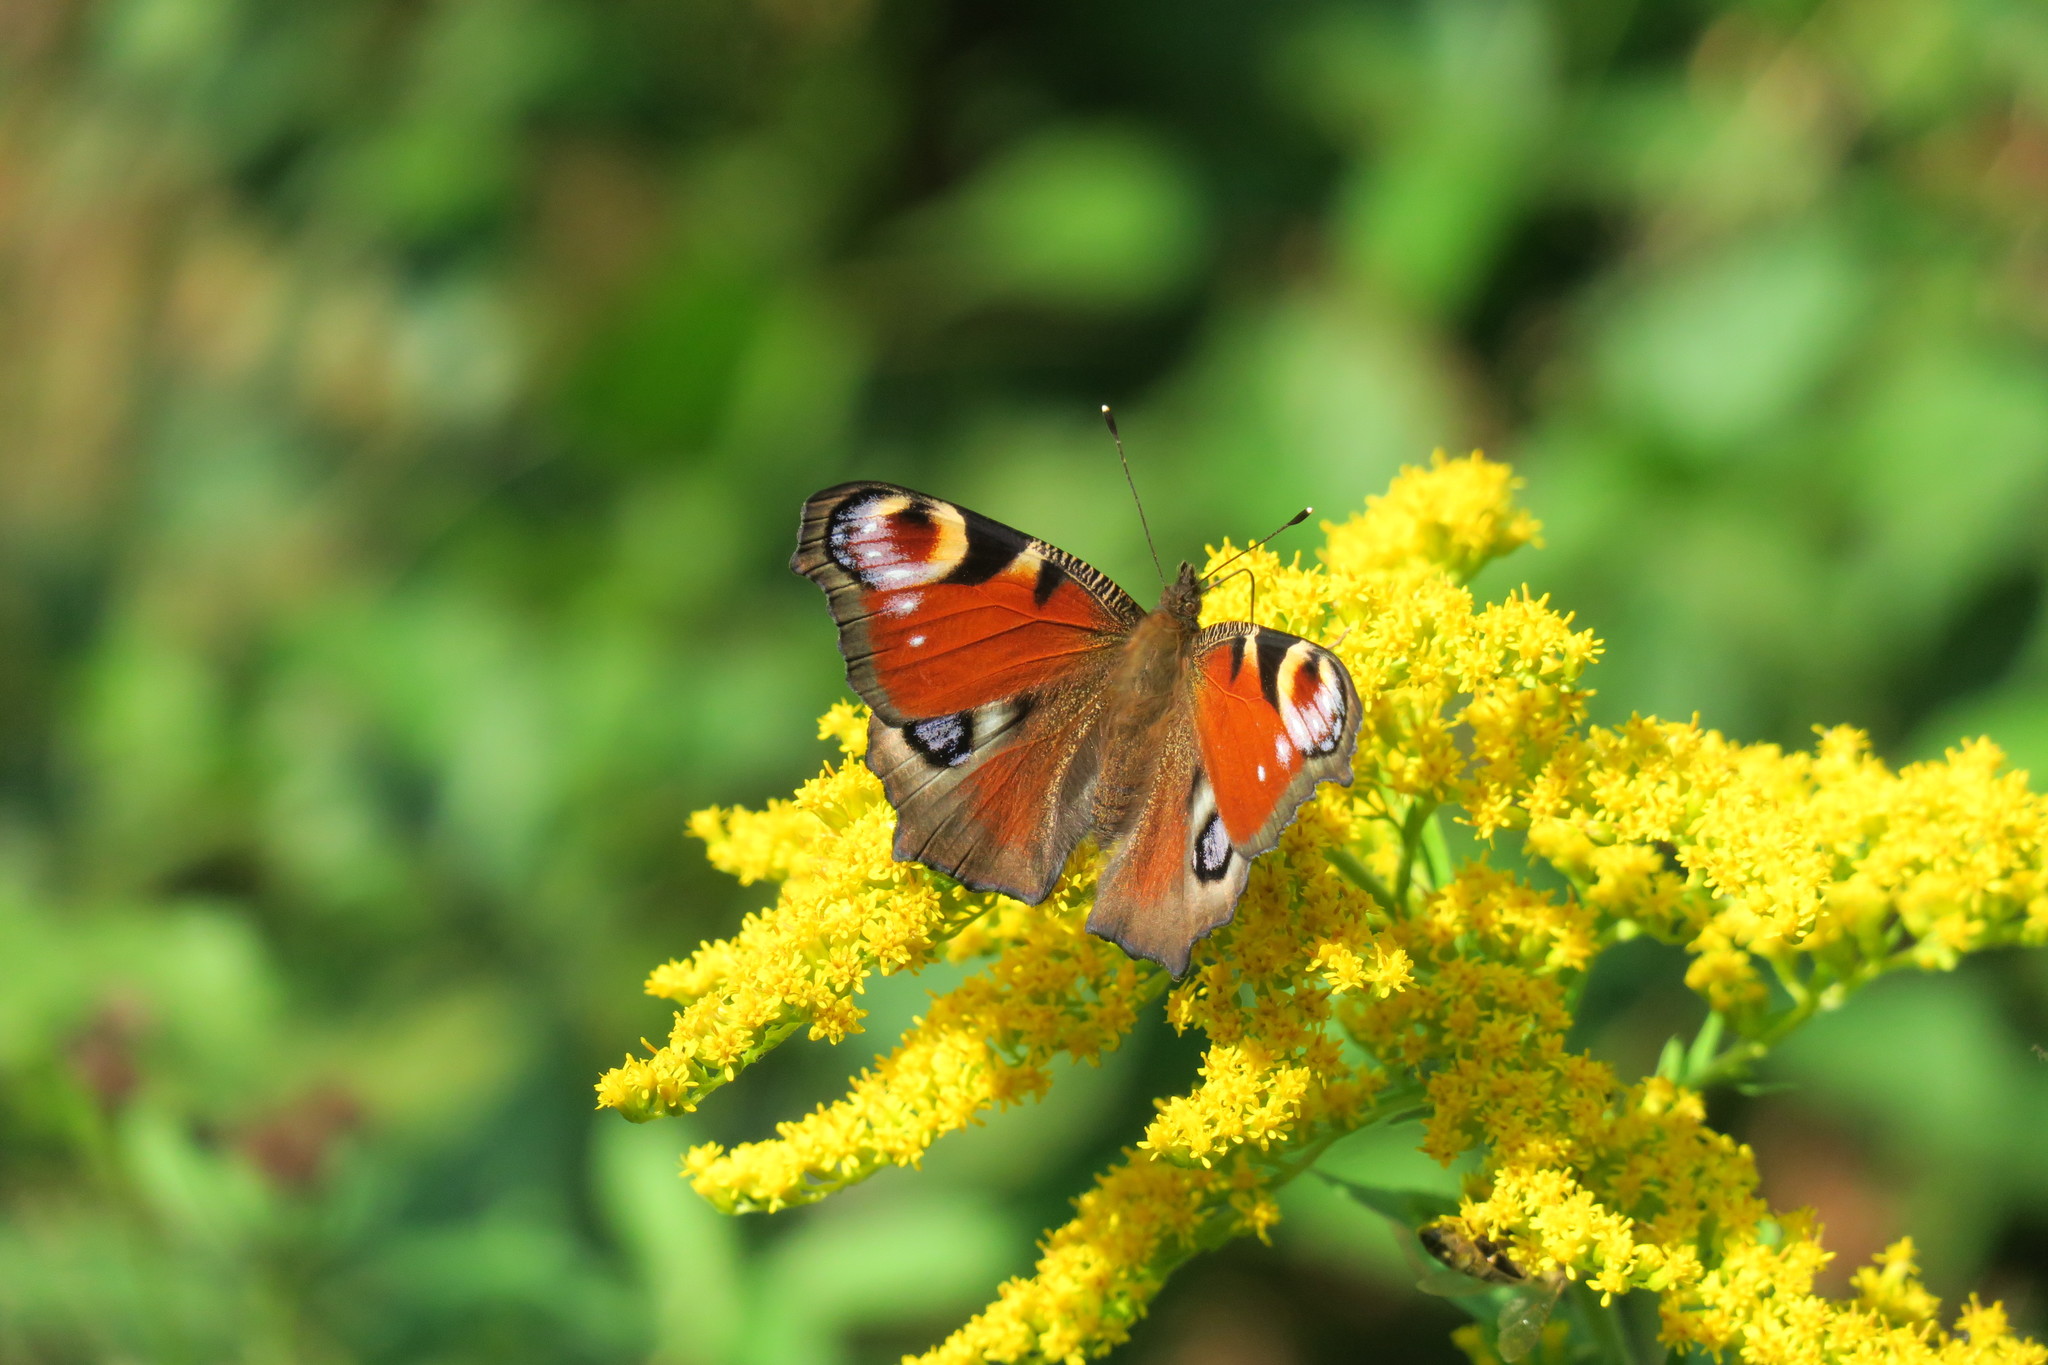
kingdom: Animalia
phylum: Arthropoda
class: Insecta
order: Lepidoptera
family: Nymphalidae
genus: Aglais
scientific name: Aglais io
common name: Peacock
